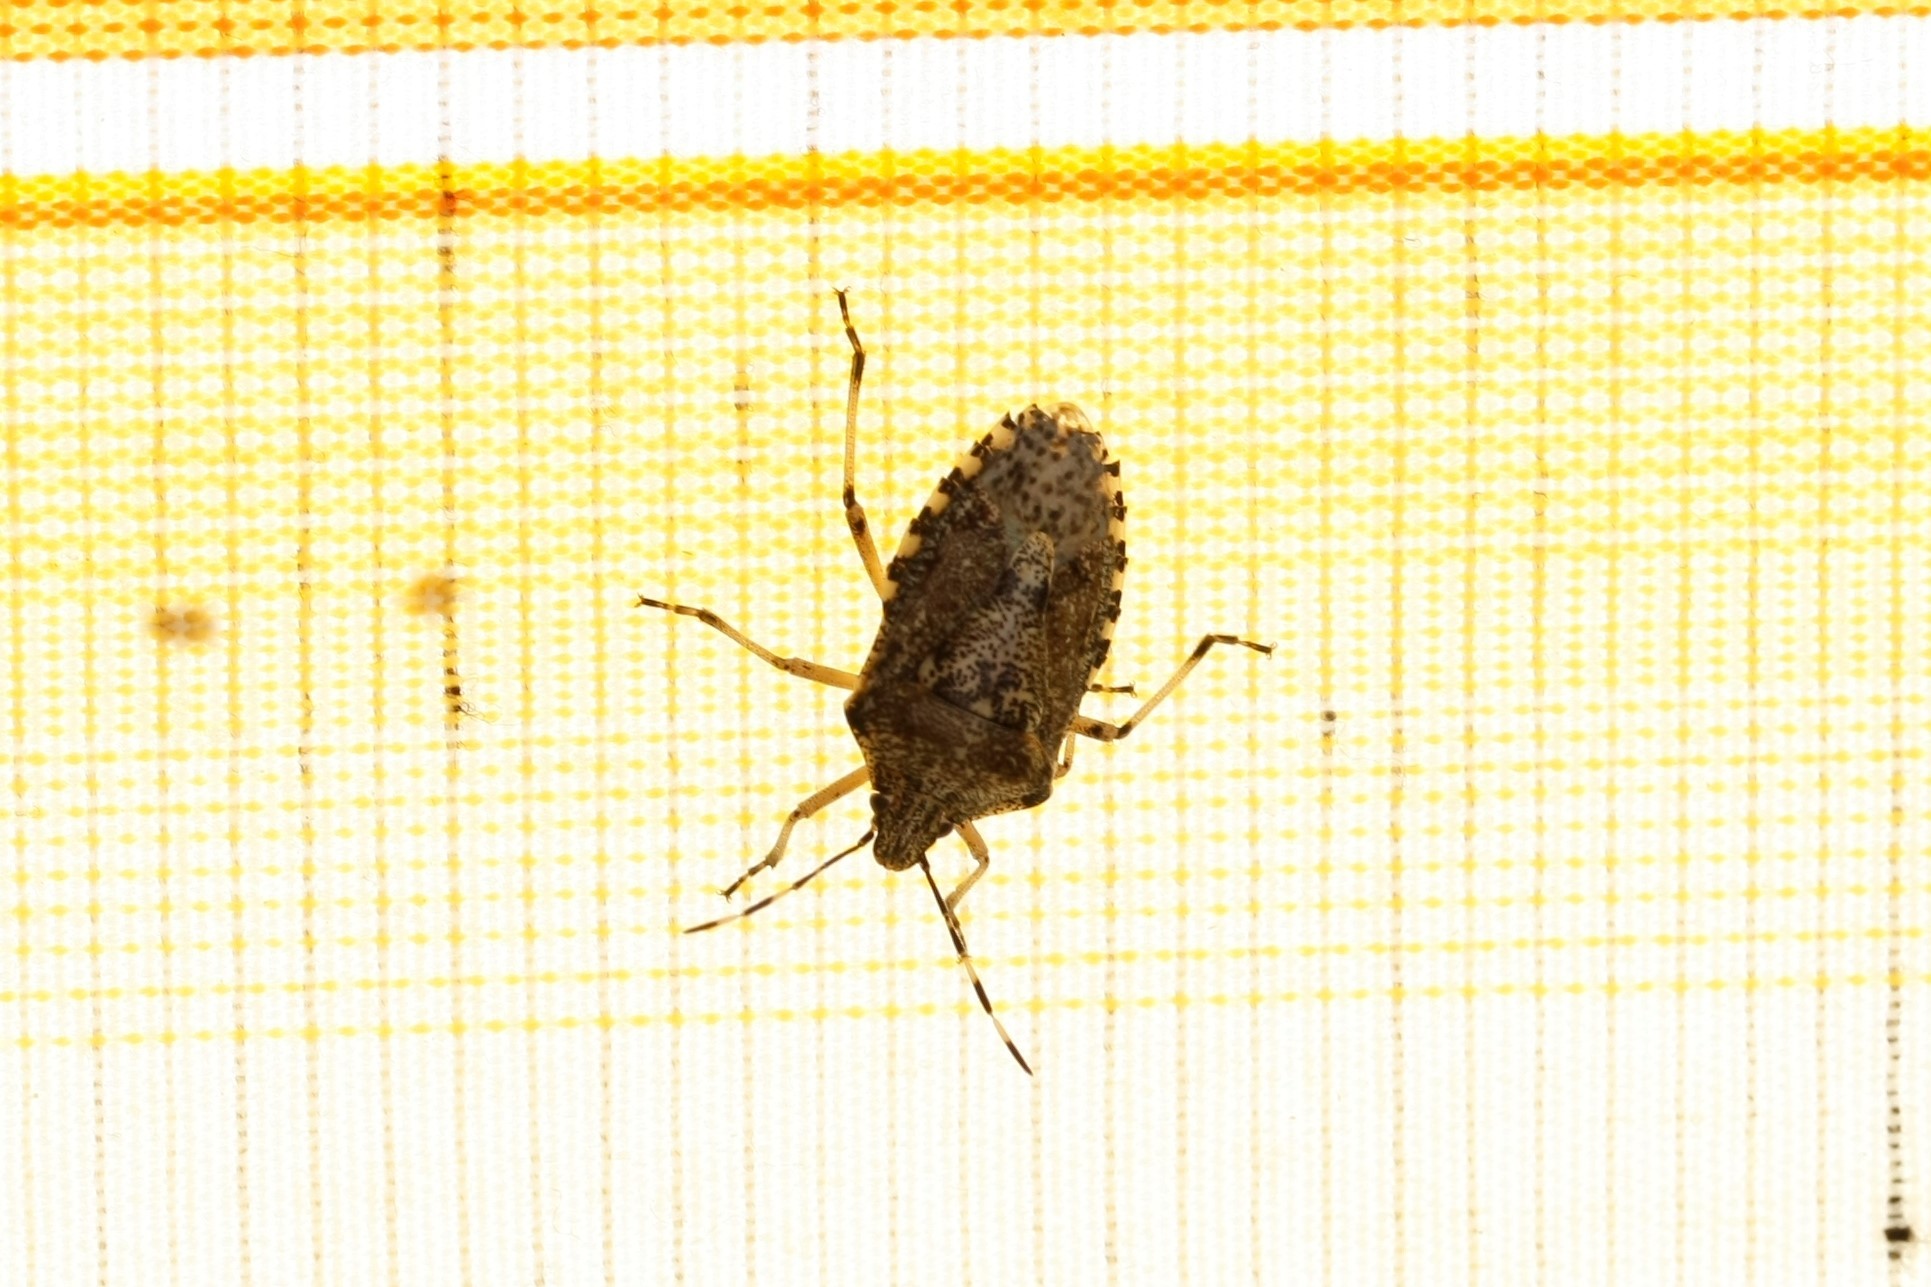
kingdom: Animalia
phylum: Arthropoda
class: Insecta
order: Hemiptera
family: Pentatomidae
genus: Rhaphigaster
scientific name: Rhaphigaster nebulosa
